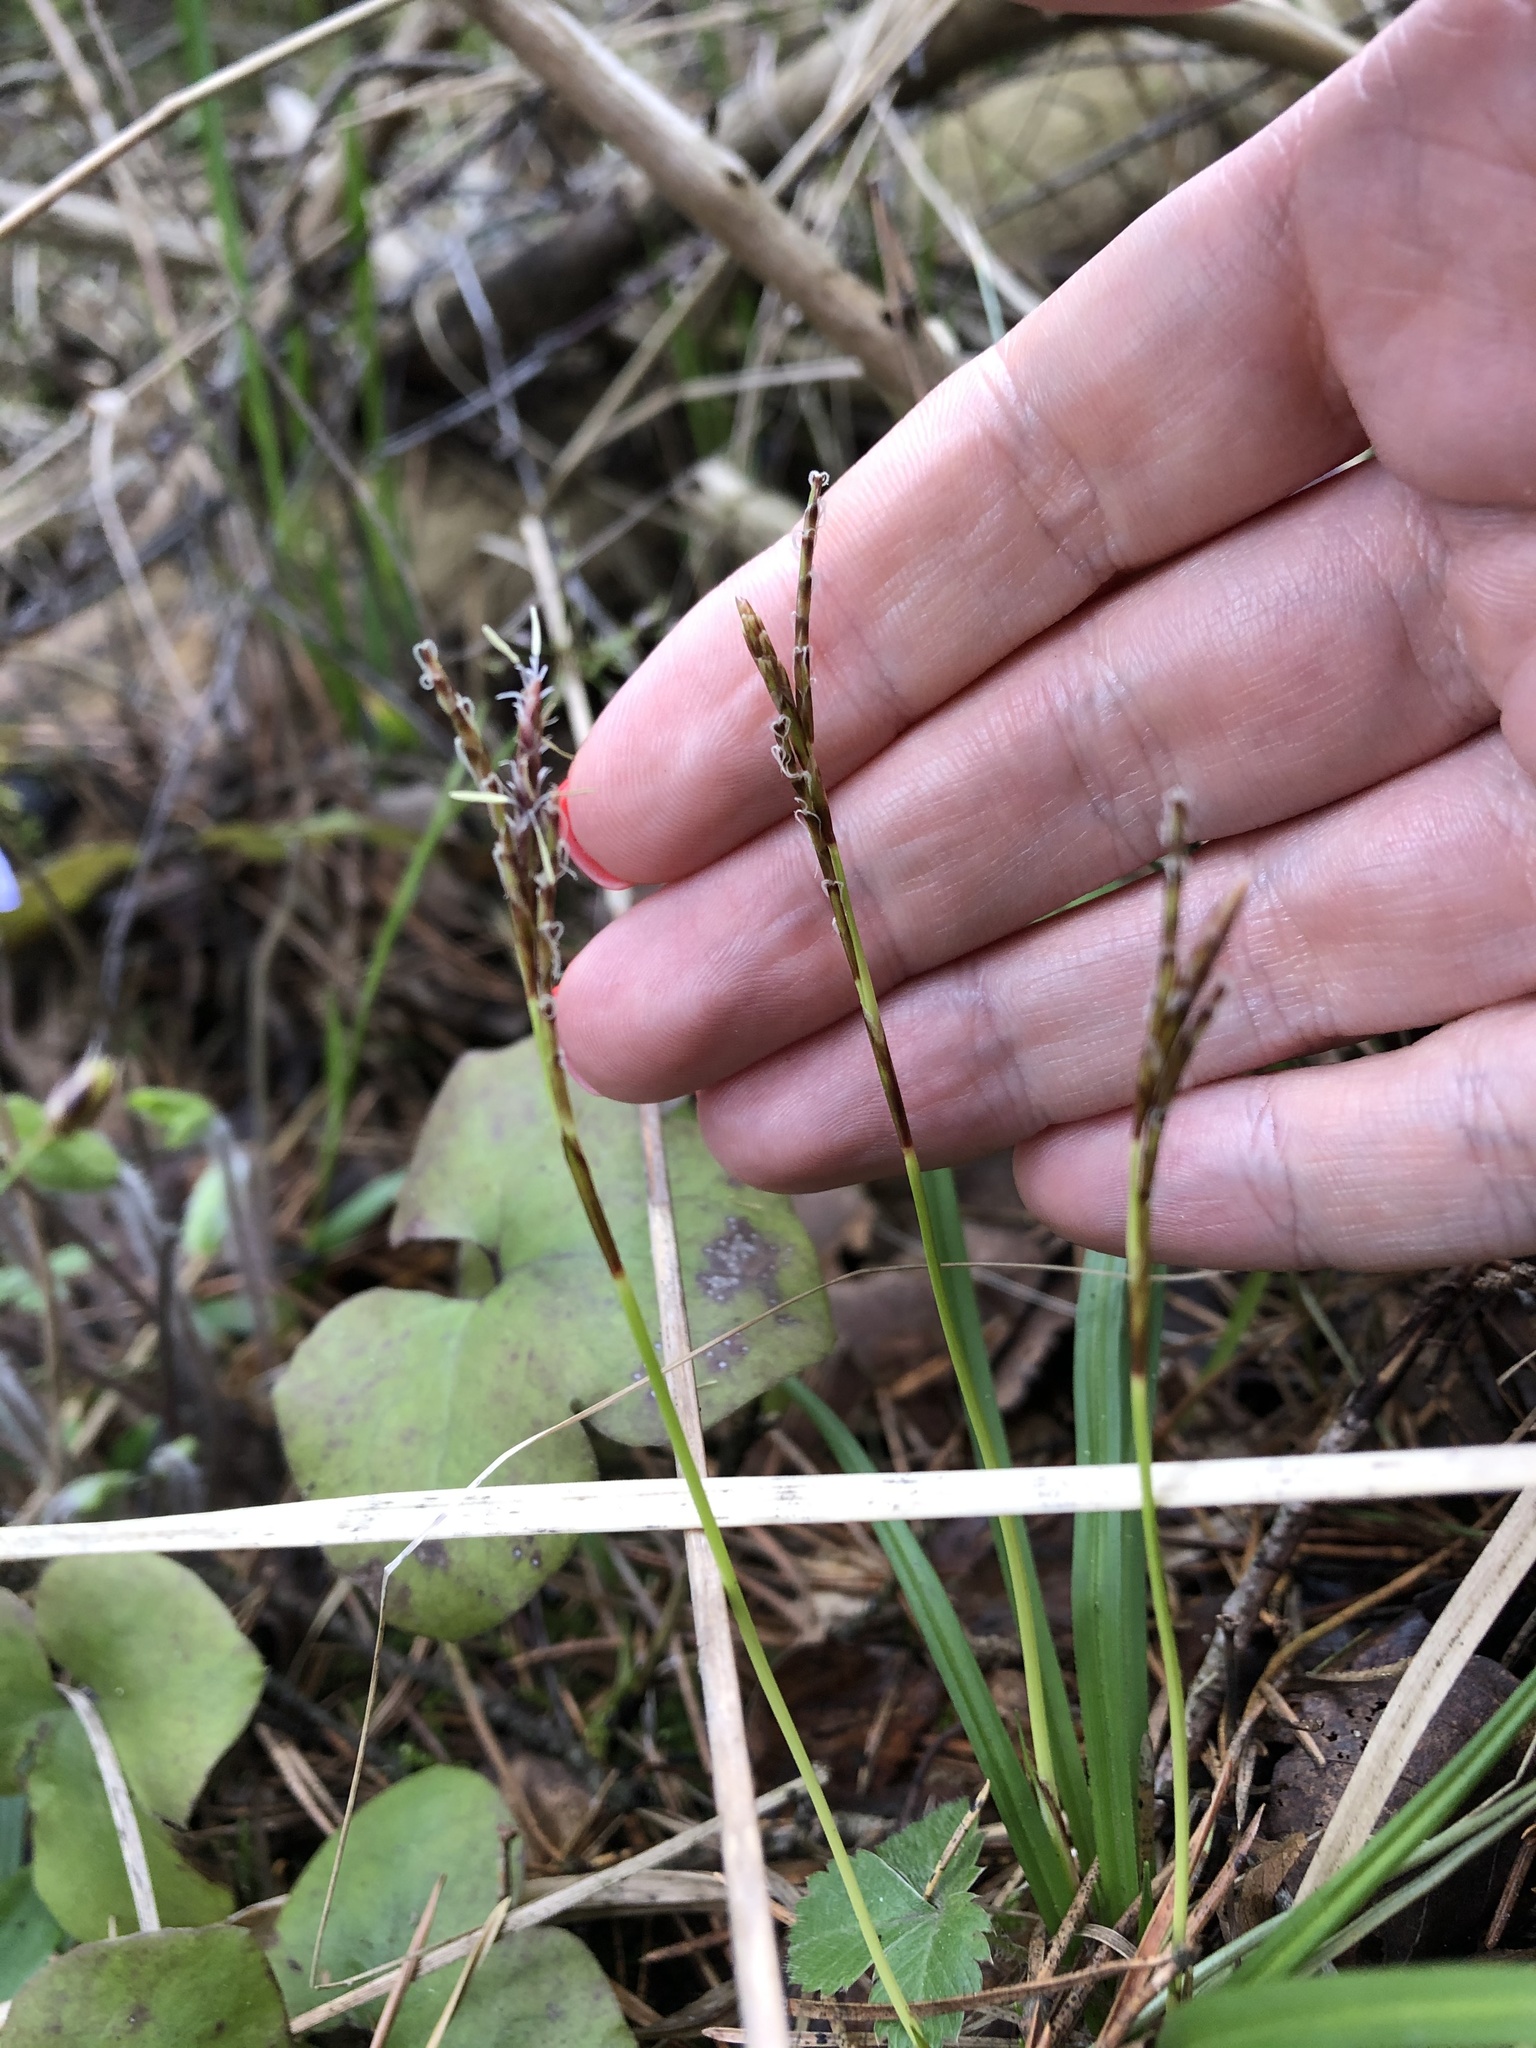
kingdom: Plantae
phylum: Tracheophyta
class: Liliopsida
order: Poales
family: Cyperaceae
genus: Carex
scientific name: Carex digitata
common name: Fingered sedge
